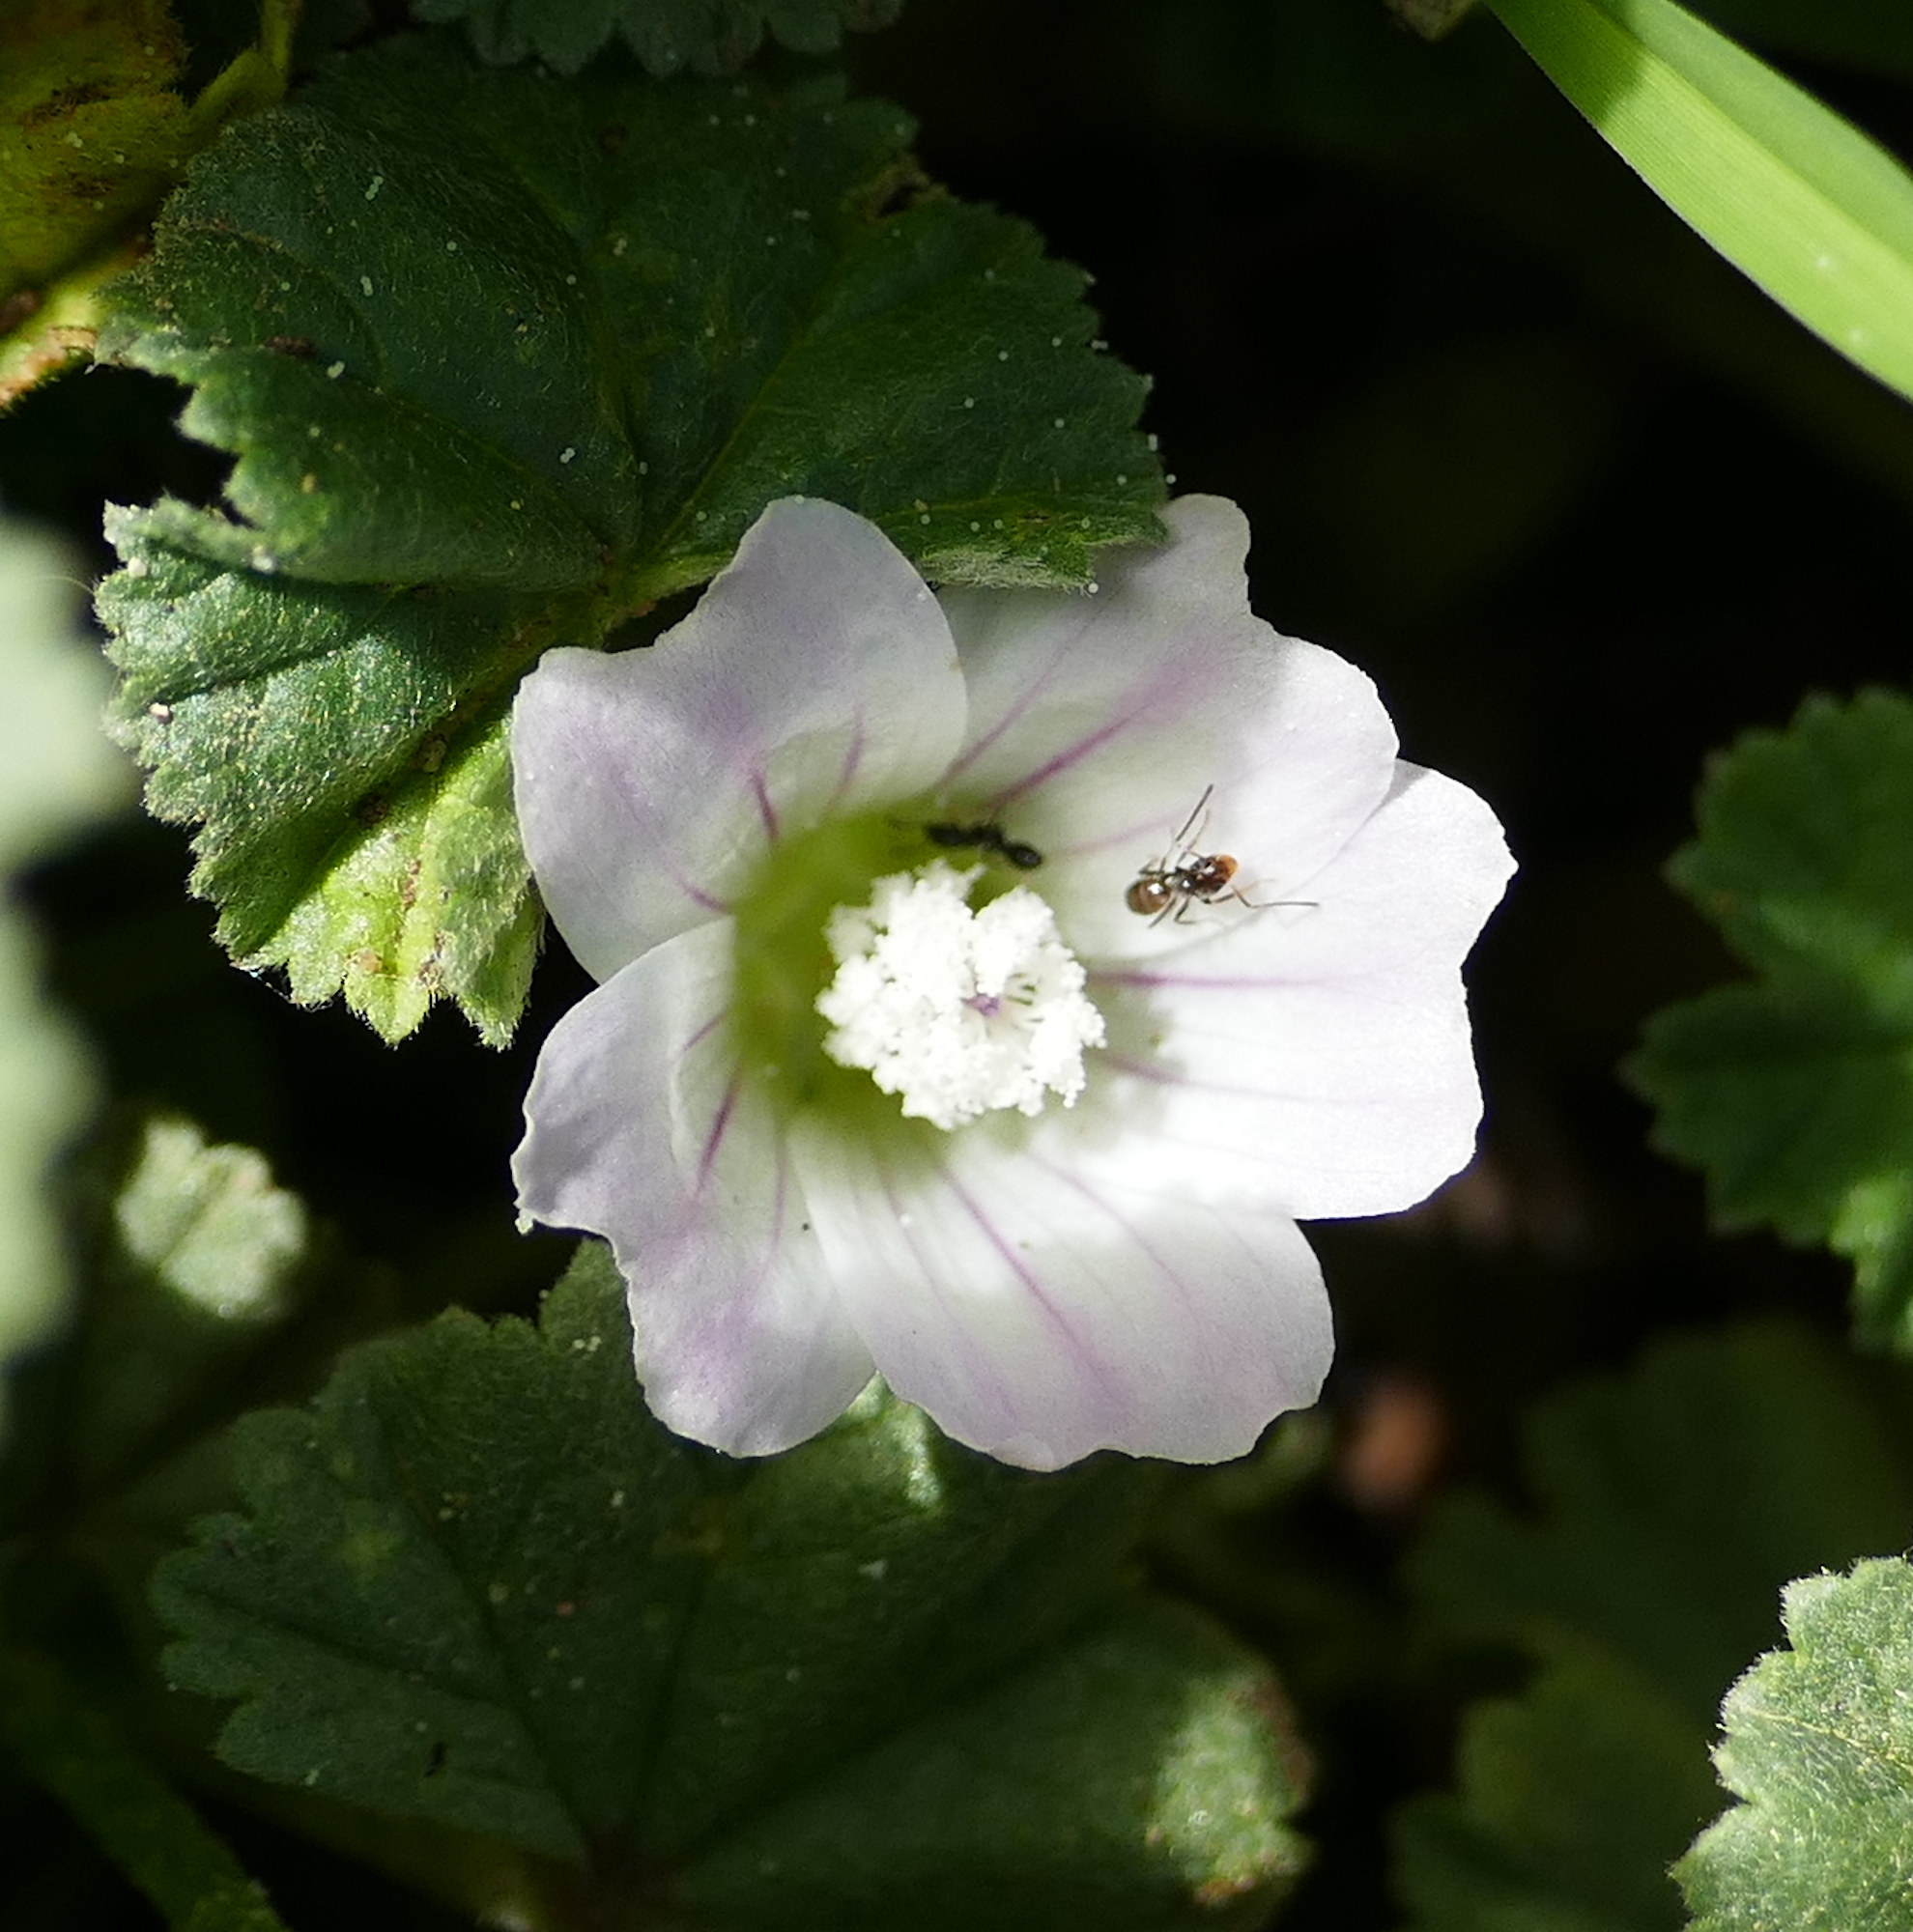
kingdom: Plantae
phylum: Tracheophyta
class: Magnoliopsida
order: Malvales
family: Malvaceae
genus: Malva
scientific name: Malva neglecta
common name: Common mallow
